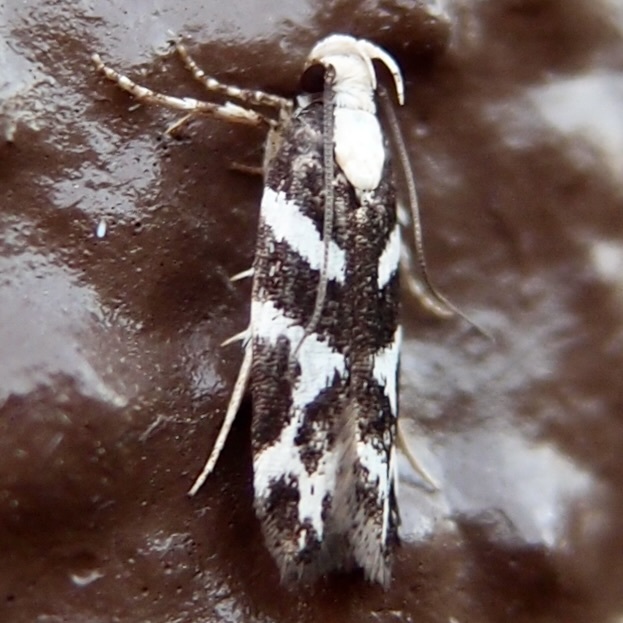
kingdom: Animalia
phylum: Arthropoda
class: Insecta
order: Lepidoptera
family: Gelechiidae
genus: Filatima
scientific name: Filatima albilorella
